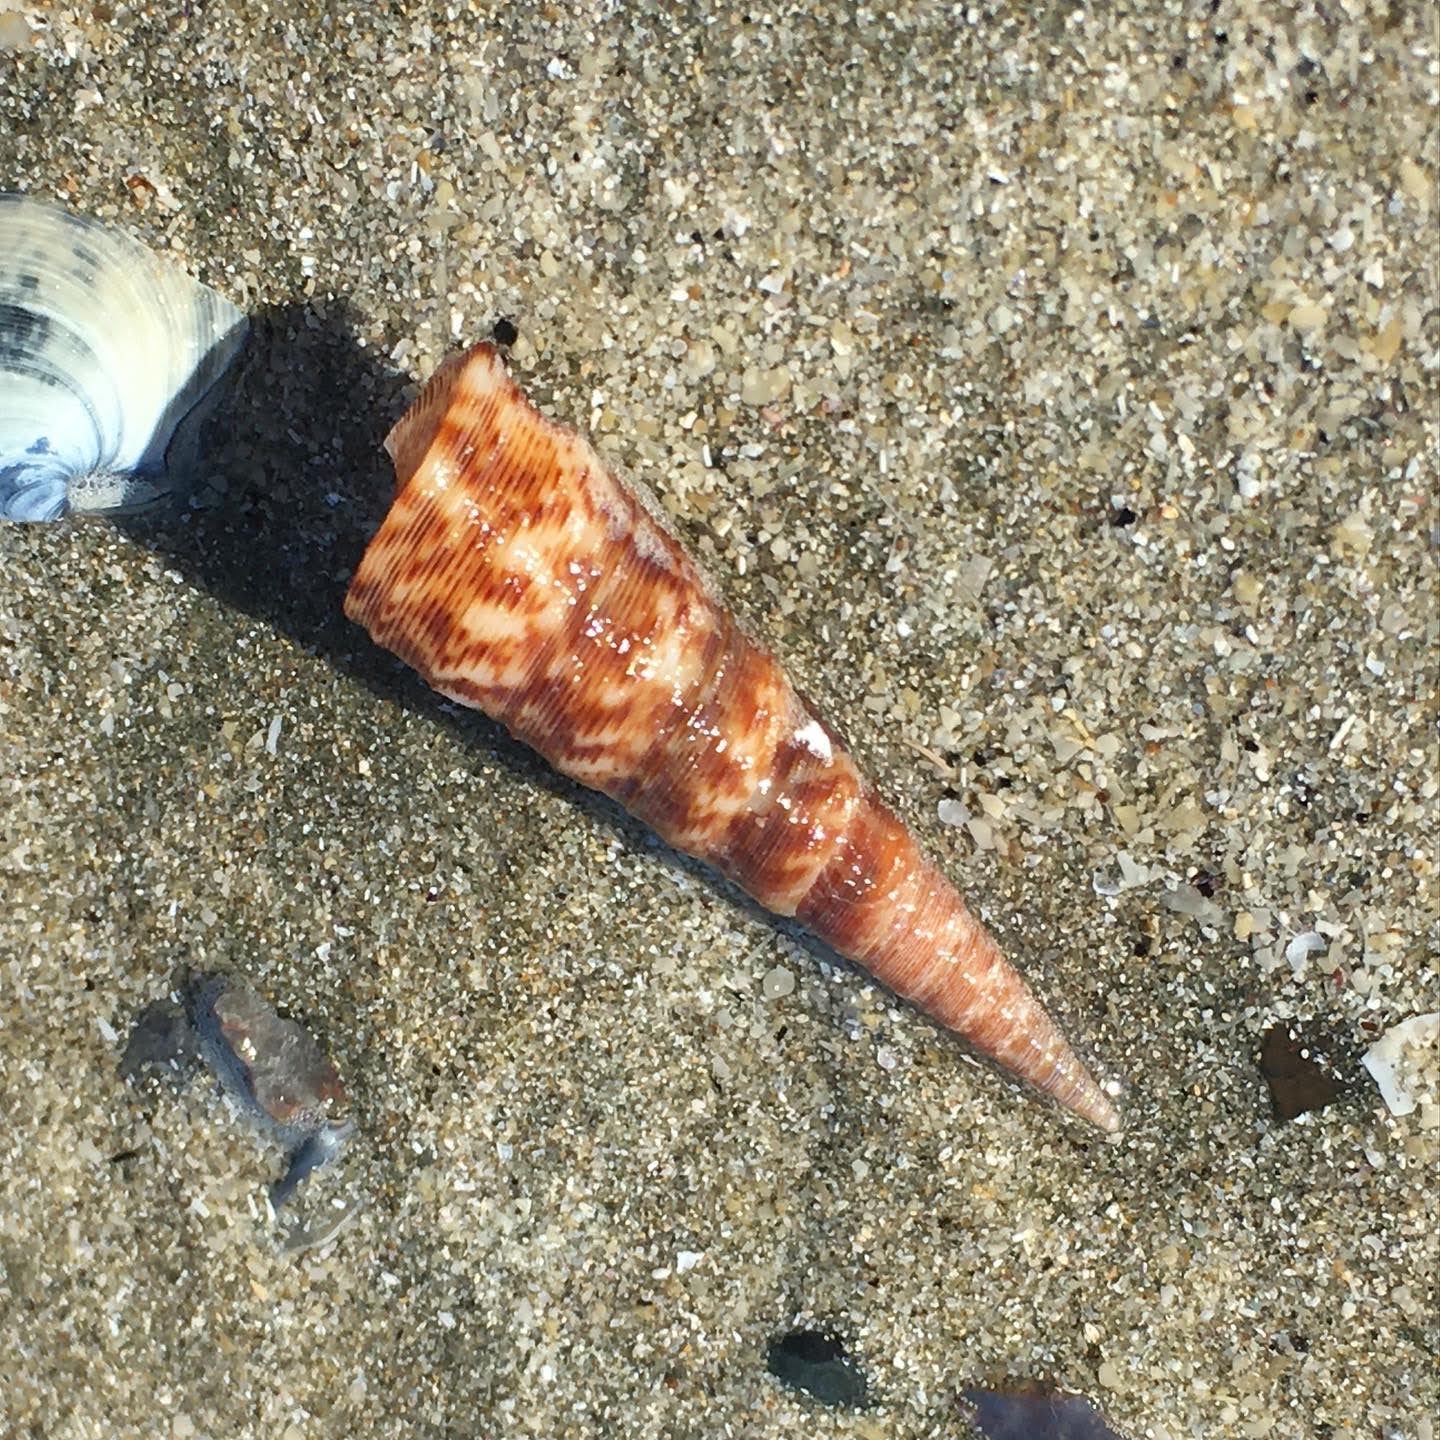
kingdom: Animalia
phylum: Mollusca
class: Gastropoda
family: Turritellidae
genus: Maoricolpus
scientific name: Maoricolpus roseus
